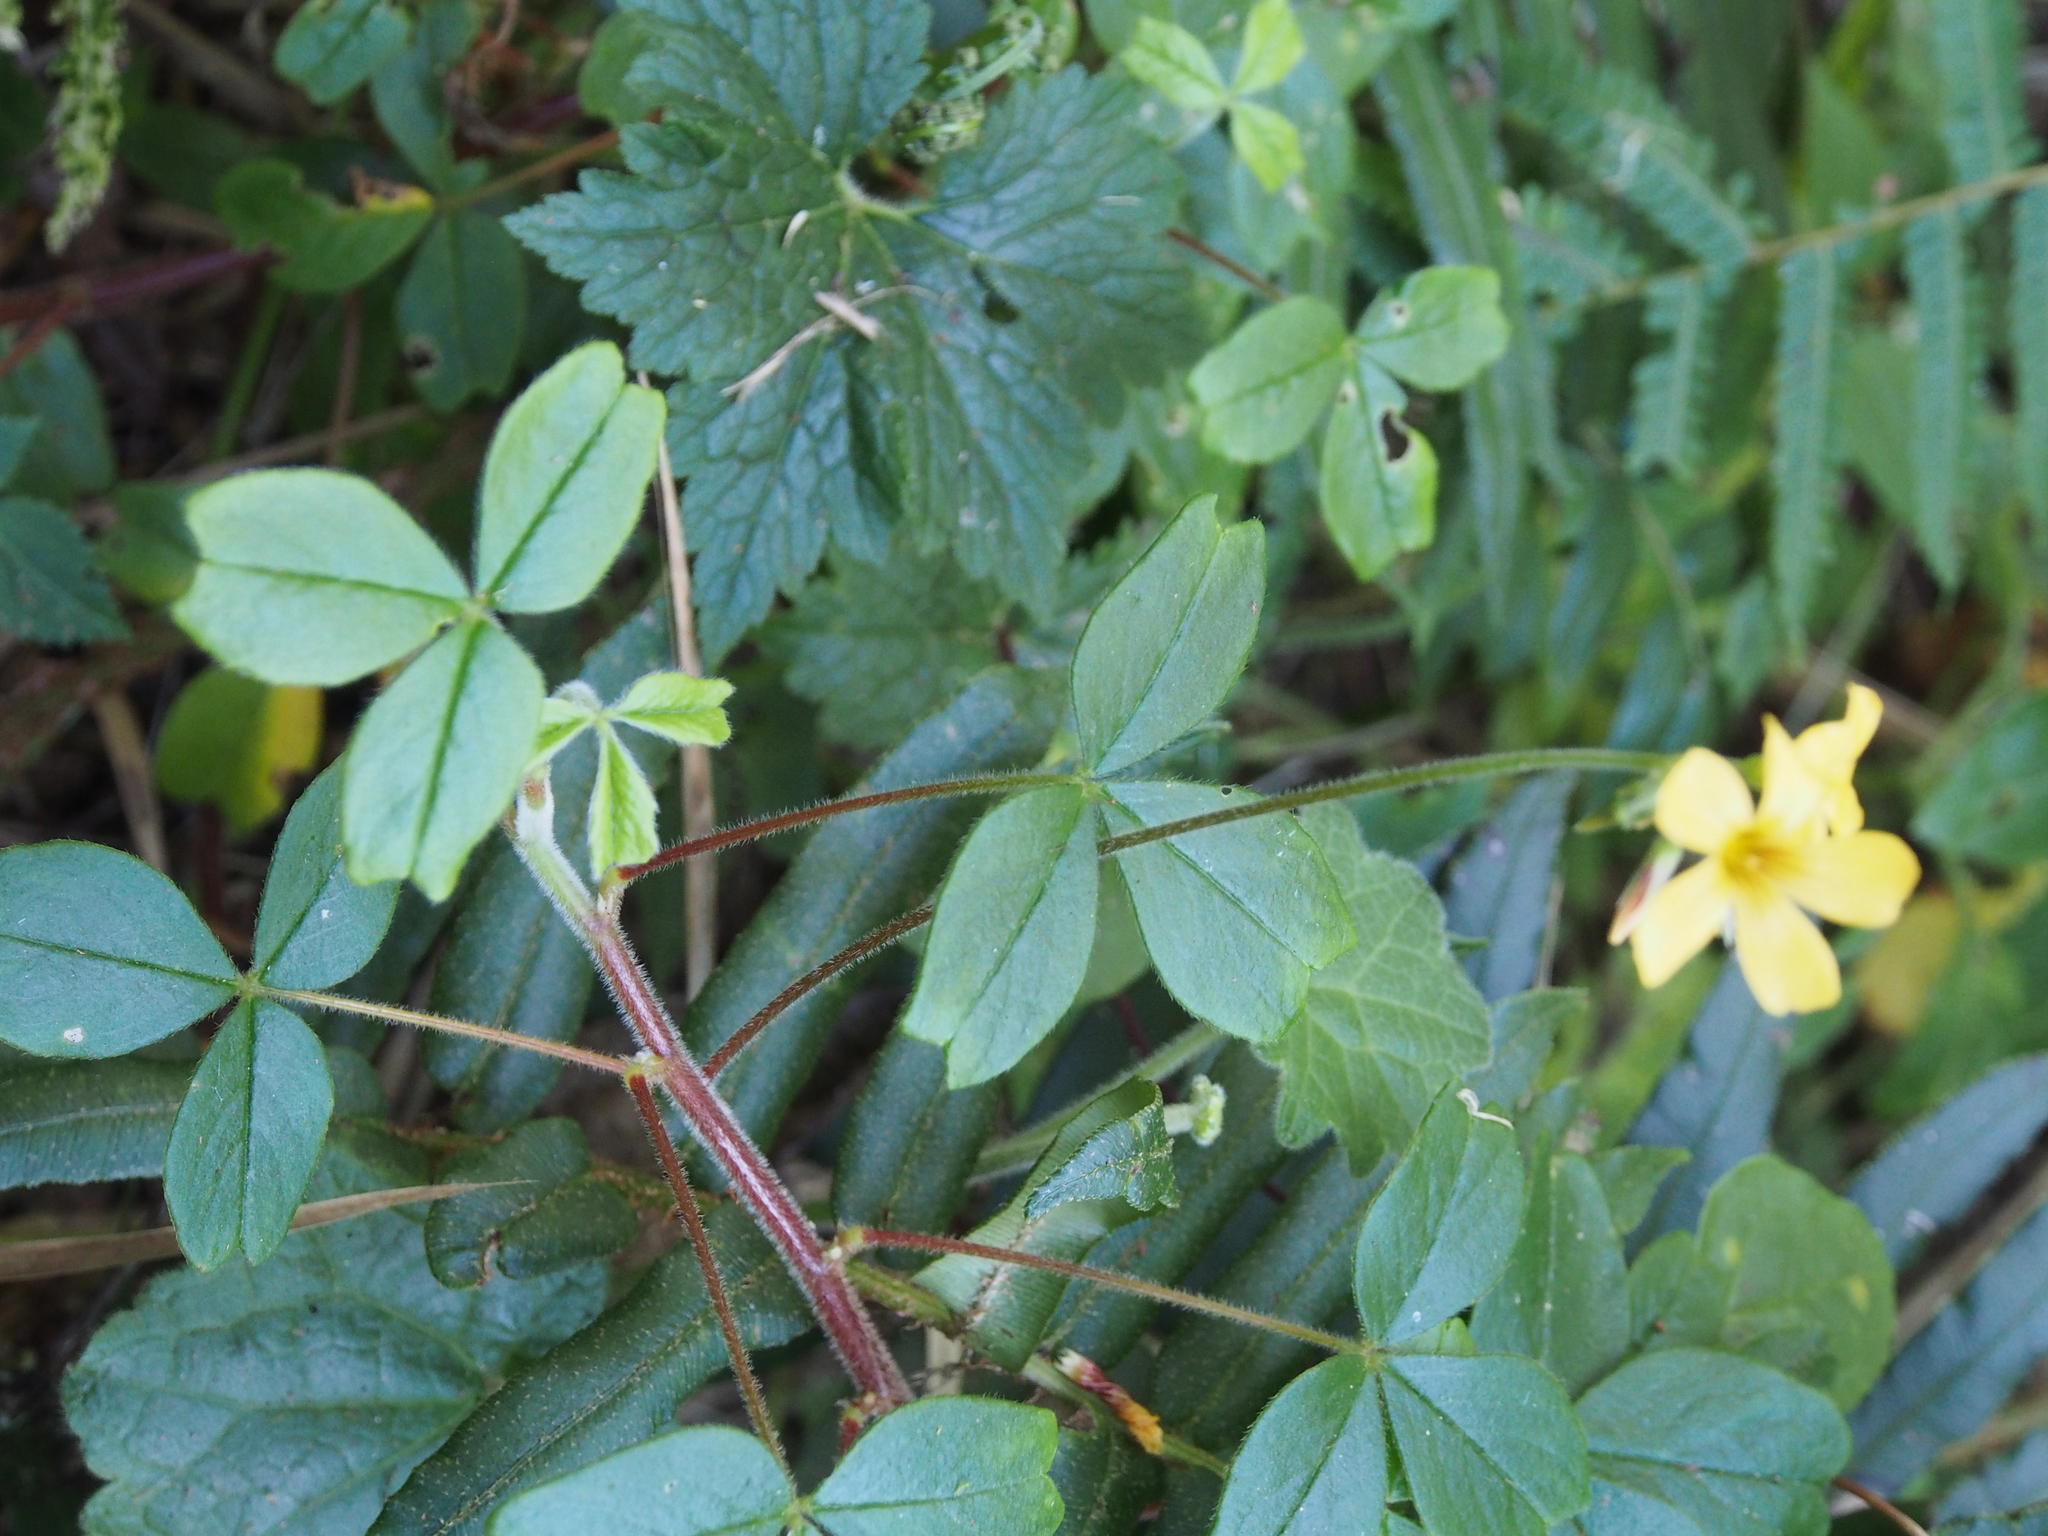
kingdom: Plantae
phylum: Tracheophyta
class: Magnoliopsida
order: Oxalidales
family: Oxalidaceae
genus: Oxalis
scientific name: Oxalis spiralis
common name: Spiral sorrel
